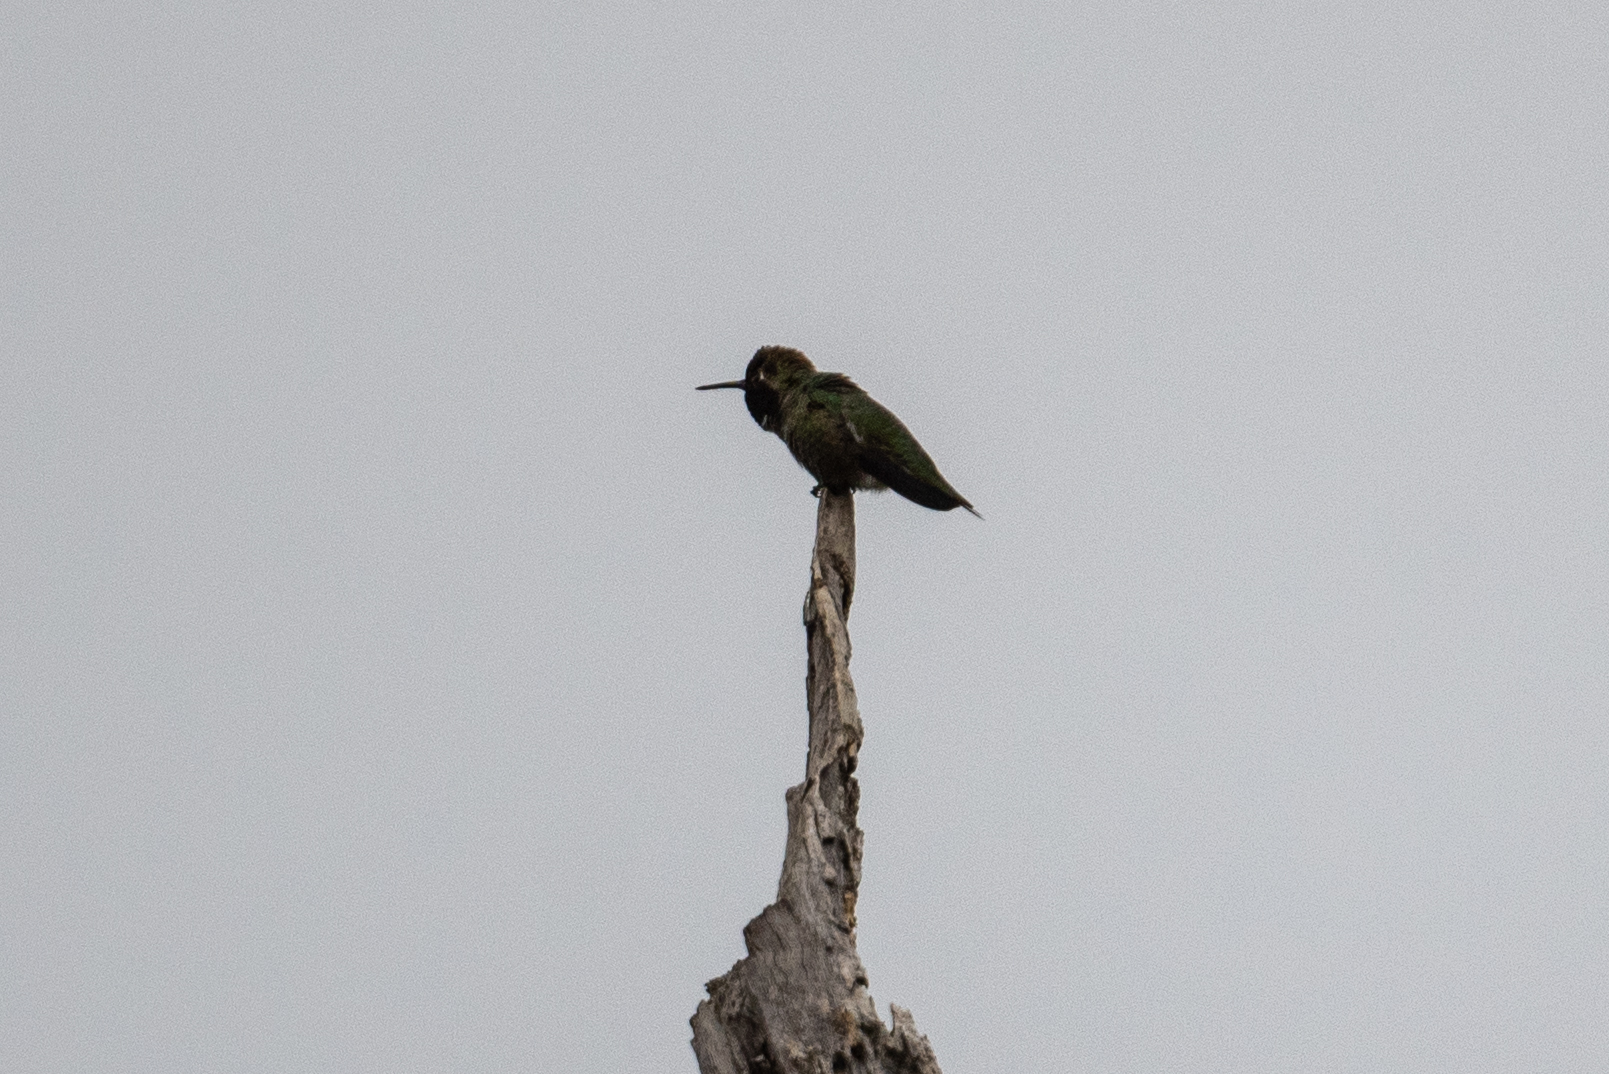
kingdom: Animalia
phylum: Chordata
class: Aves
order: Apodiformes
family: Trochilidae
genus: Calypte
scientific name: Calypte anna
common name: Anna's hummingbird
